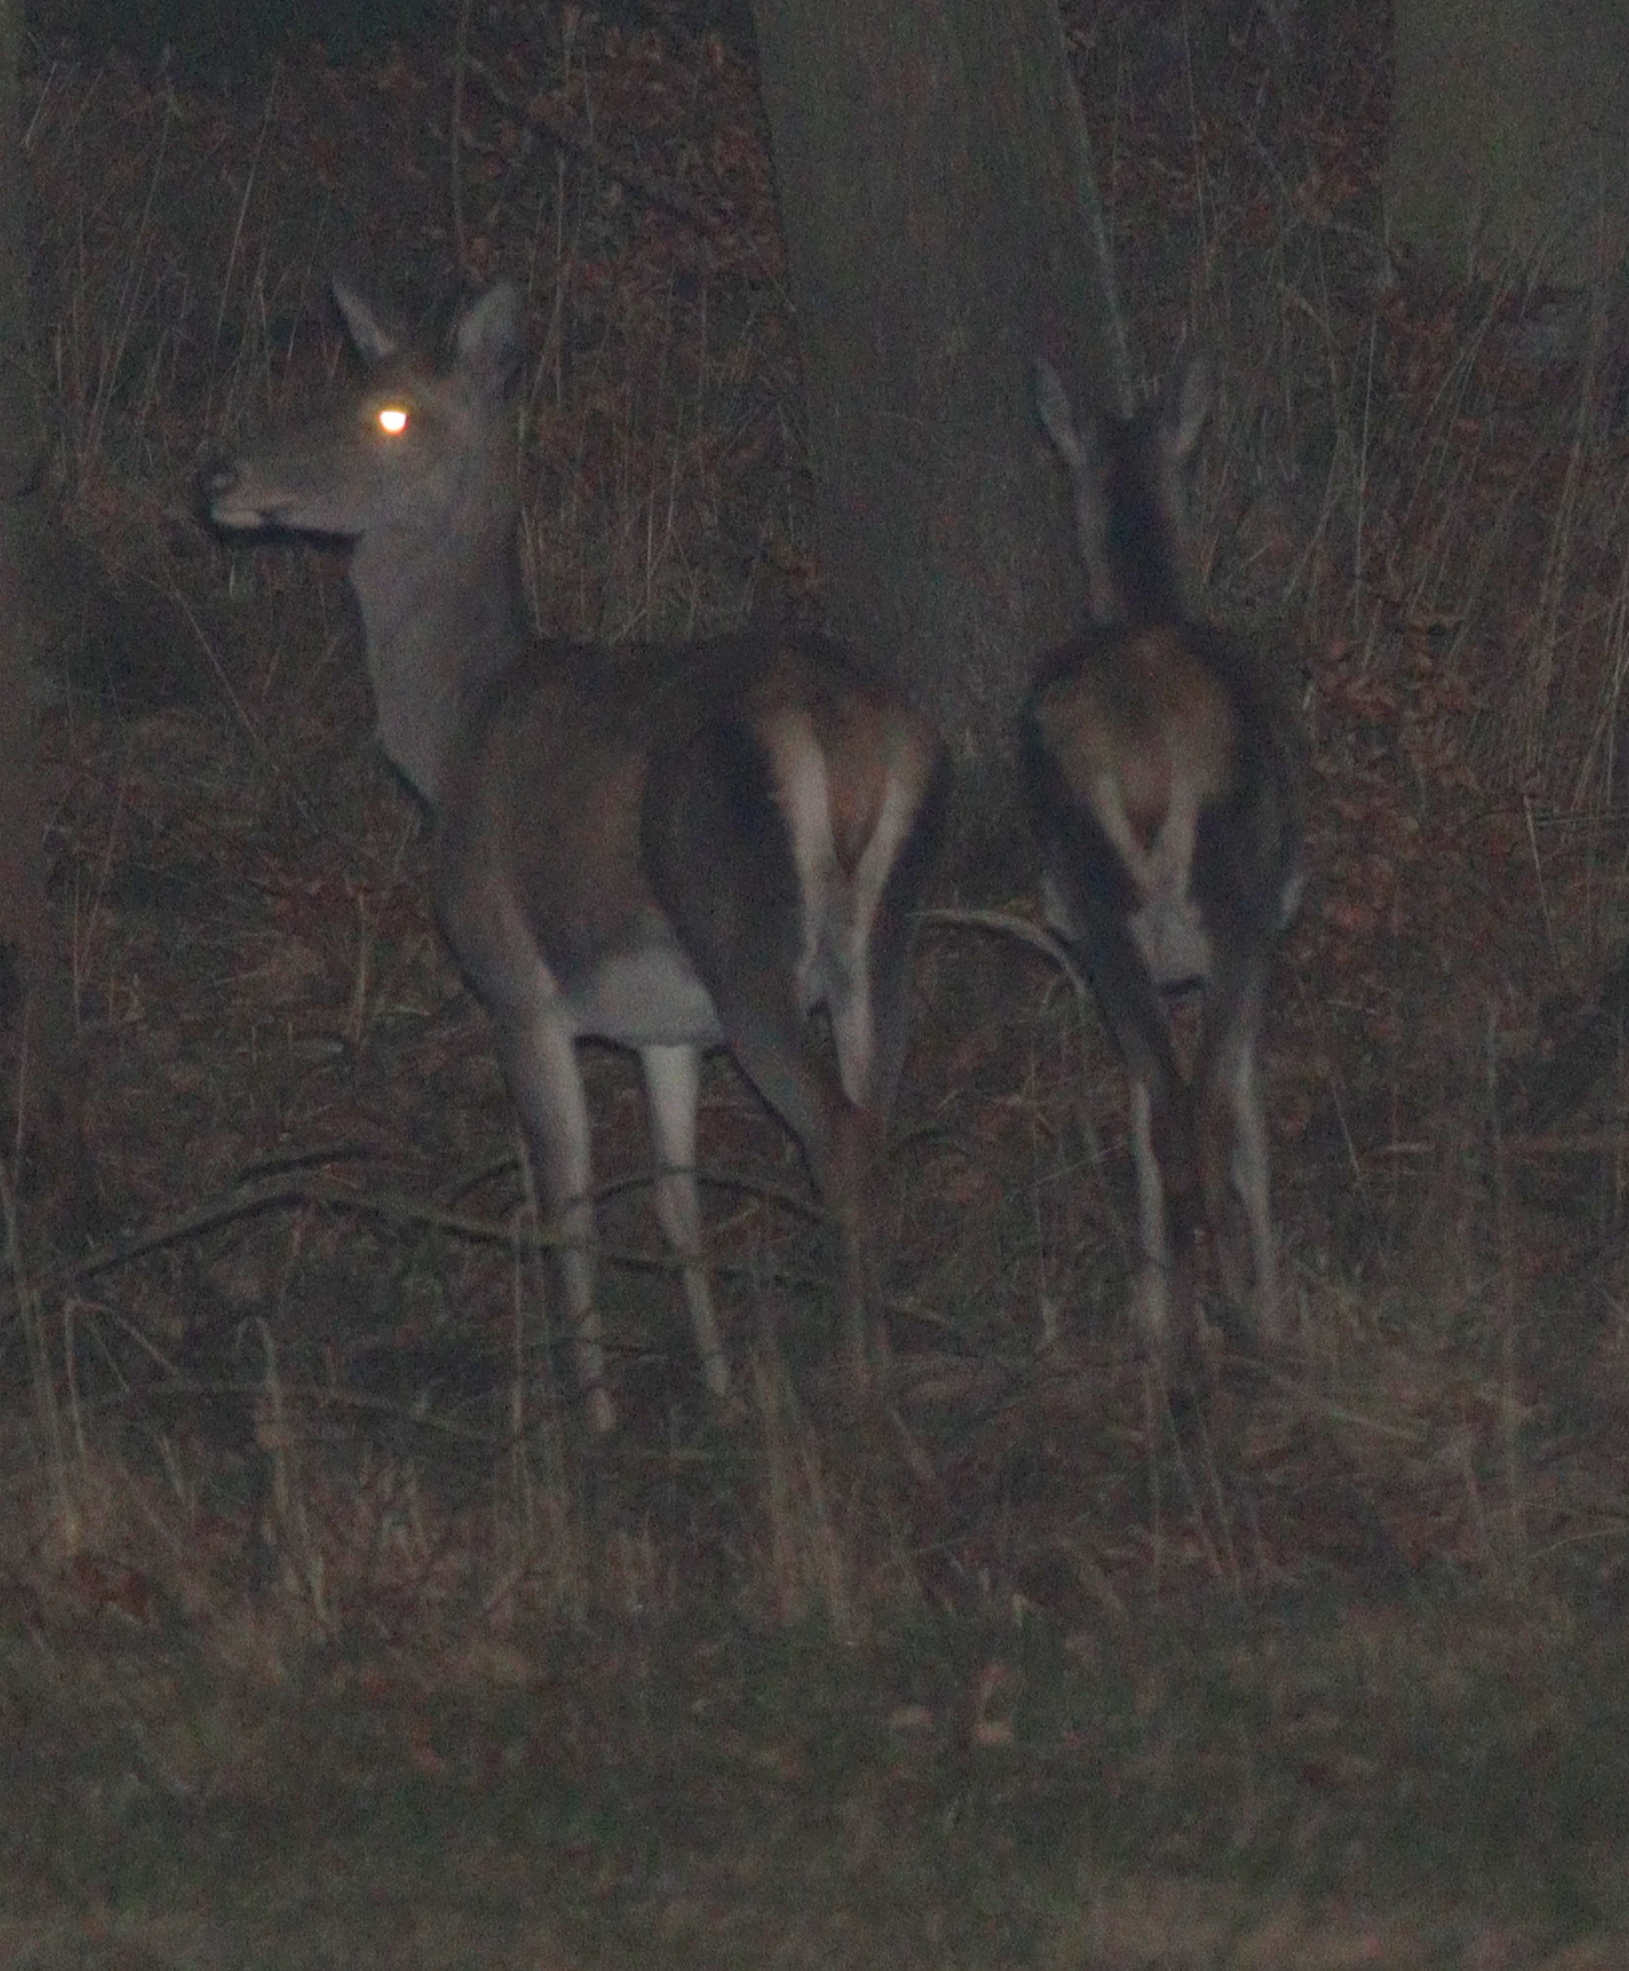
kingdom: Animalia
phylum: Chordata
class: Mammalia
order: Artiodactyla
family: Cervidae
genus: Cervus
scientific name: Cervus elaphus
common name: Red deer
